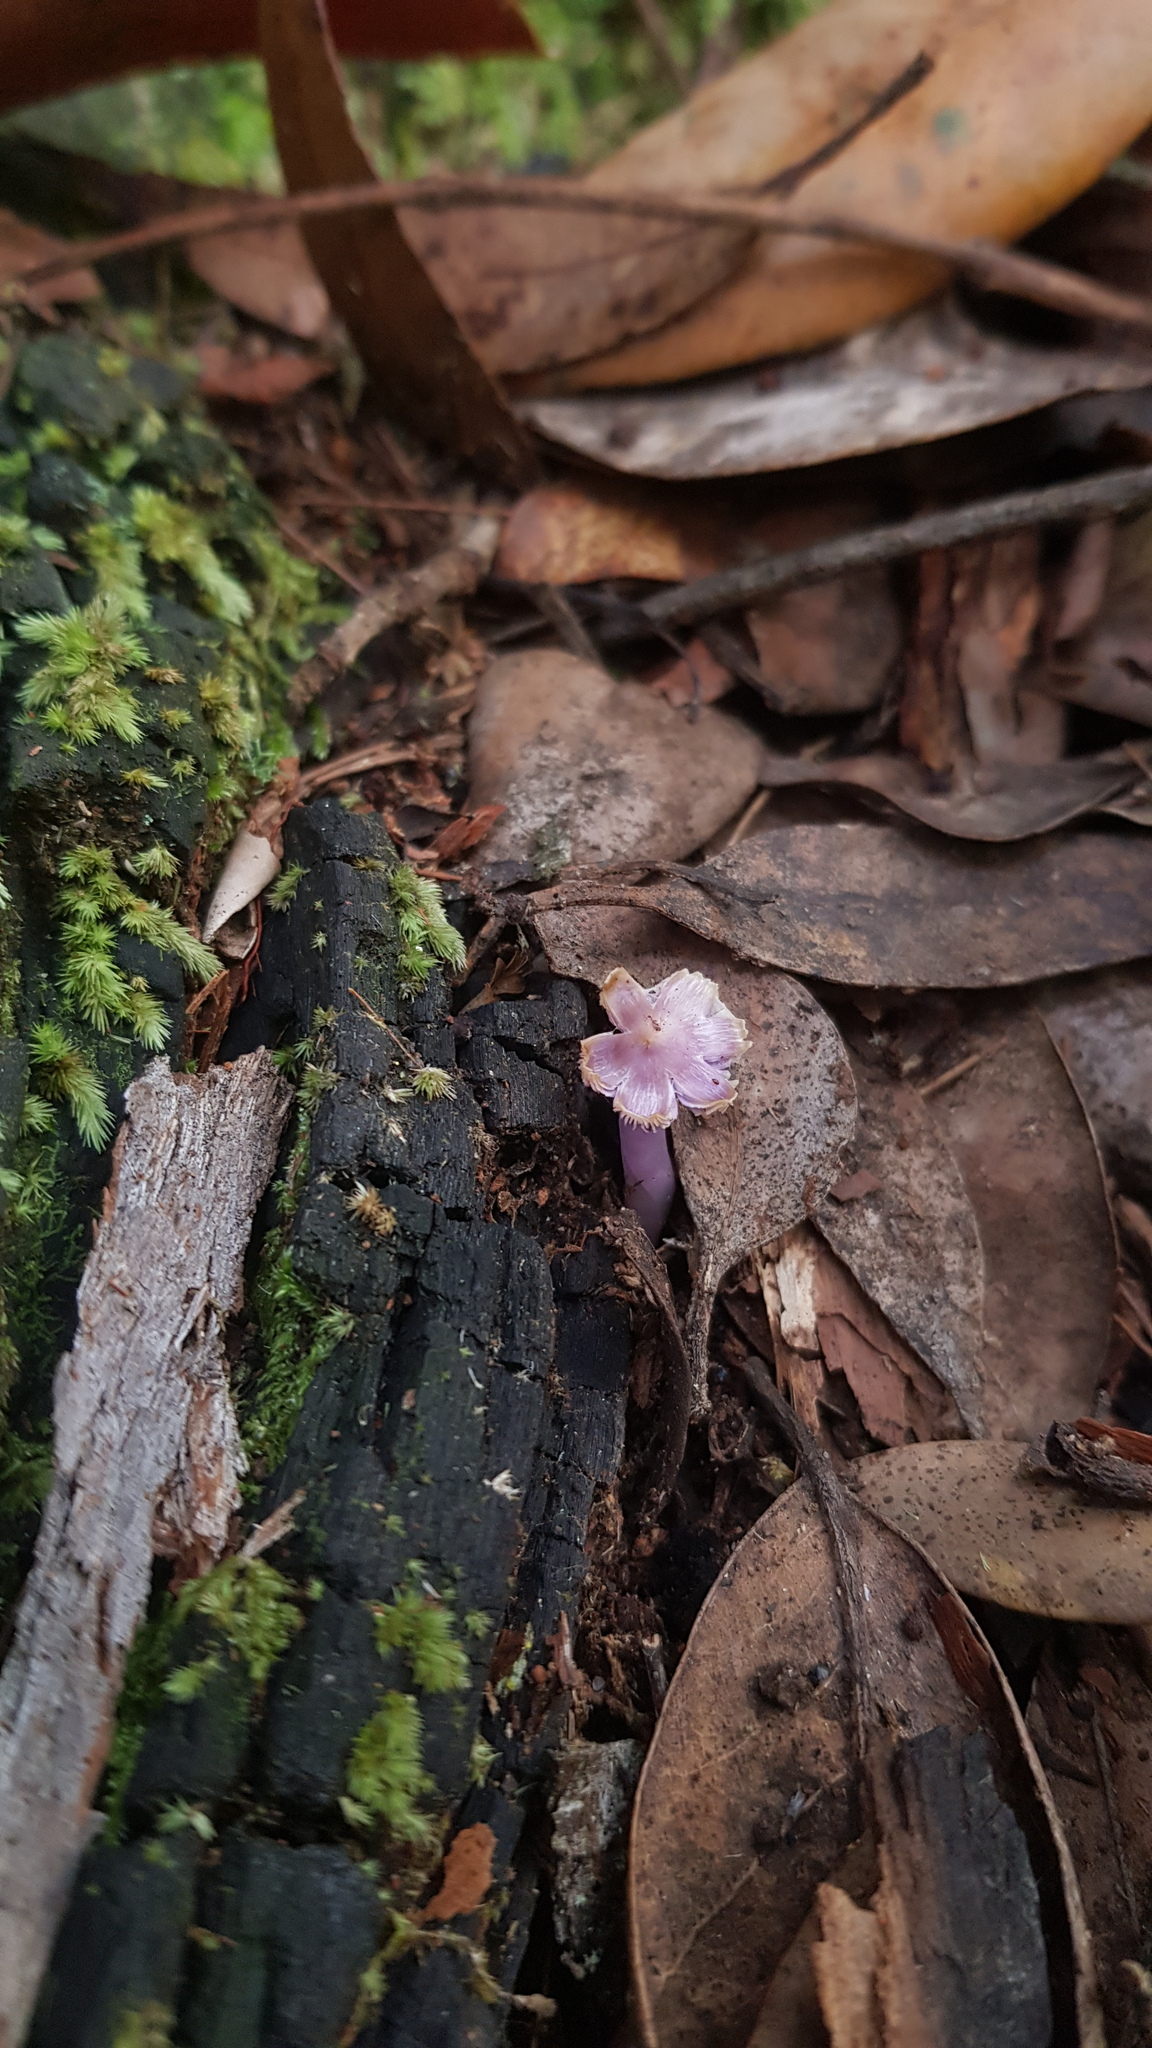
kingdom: Fungi
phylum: Basidiomycota
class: Agaricomycetes
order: Agaricales
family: Hygrophoraceae
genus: Porpolomopsis
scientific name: Porpolomopsis lewelliniae
